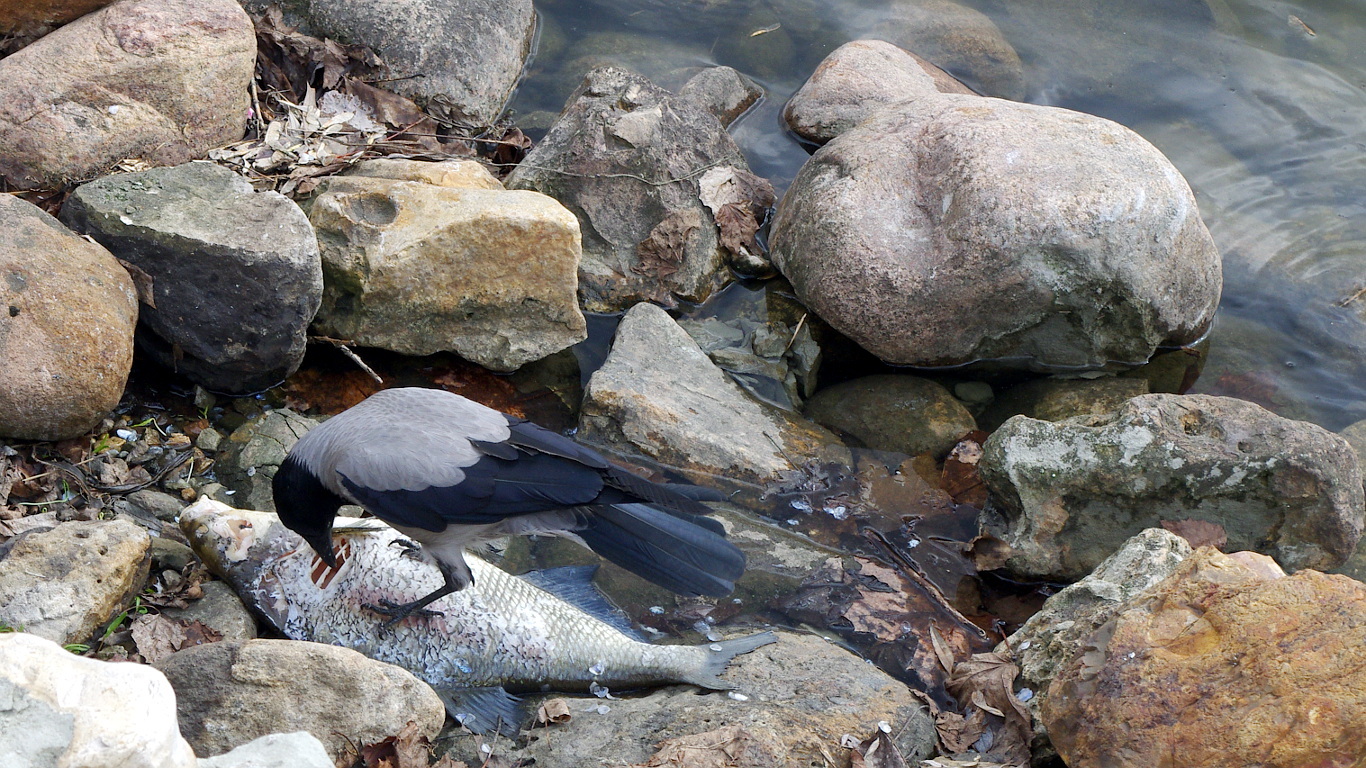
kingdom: Animalia
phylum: Chordata
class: Aves
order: Passeriformes
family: Corvidae
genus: Corvus
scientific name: Corvus cornix
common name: Hooded crow
